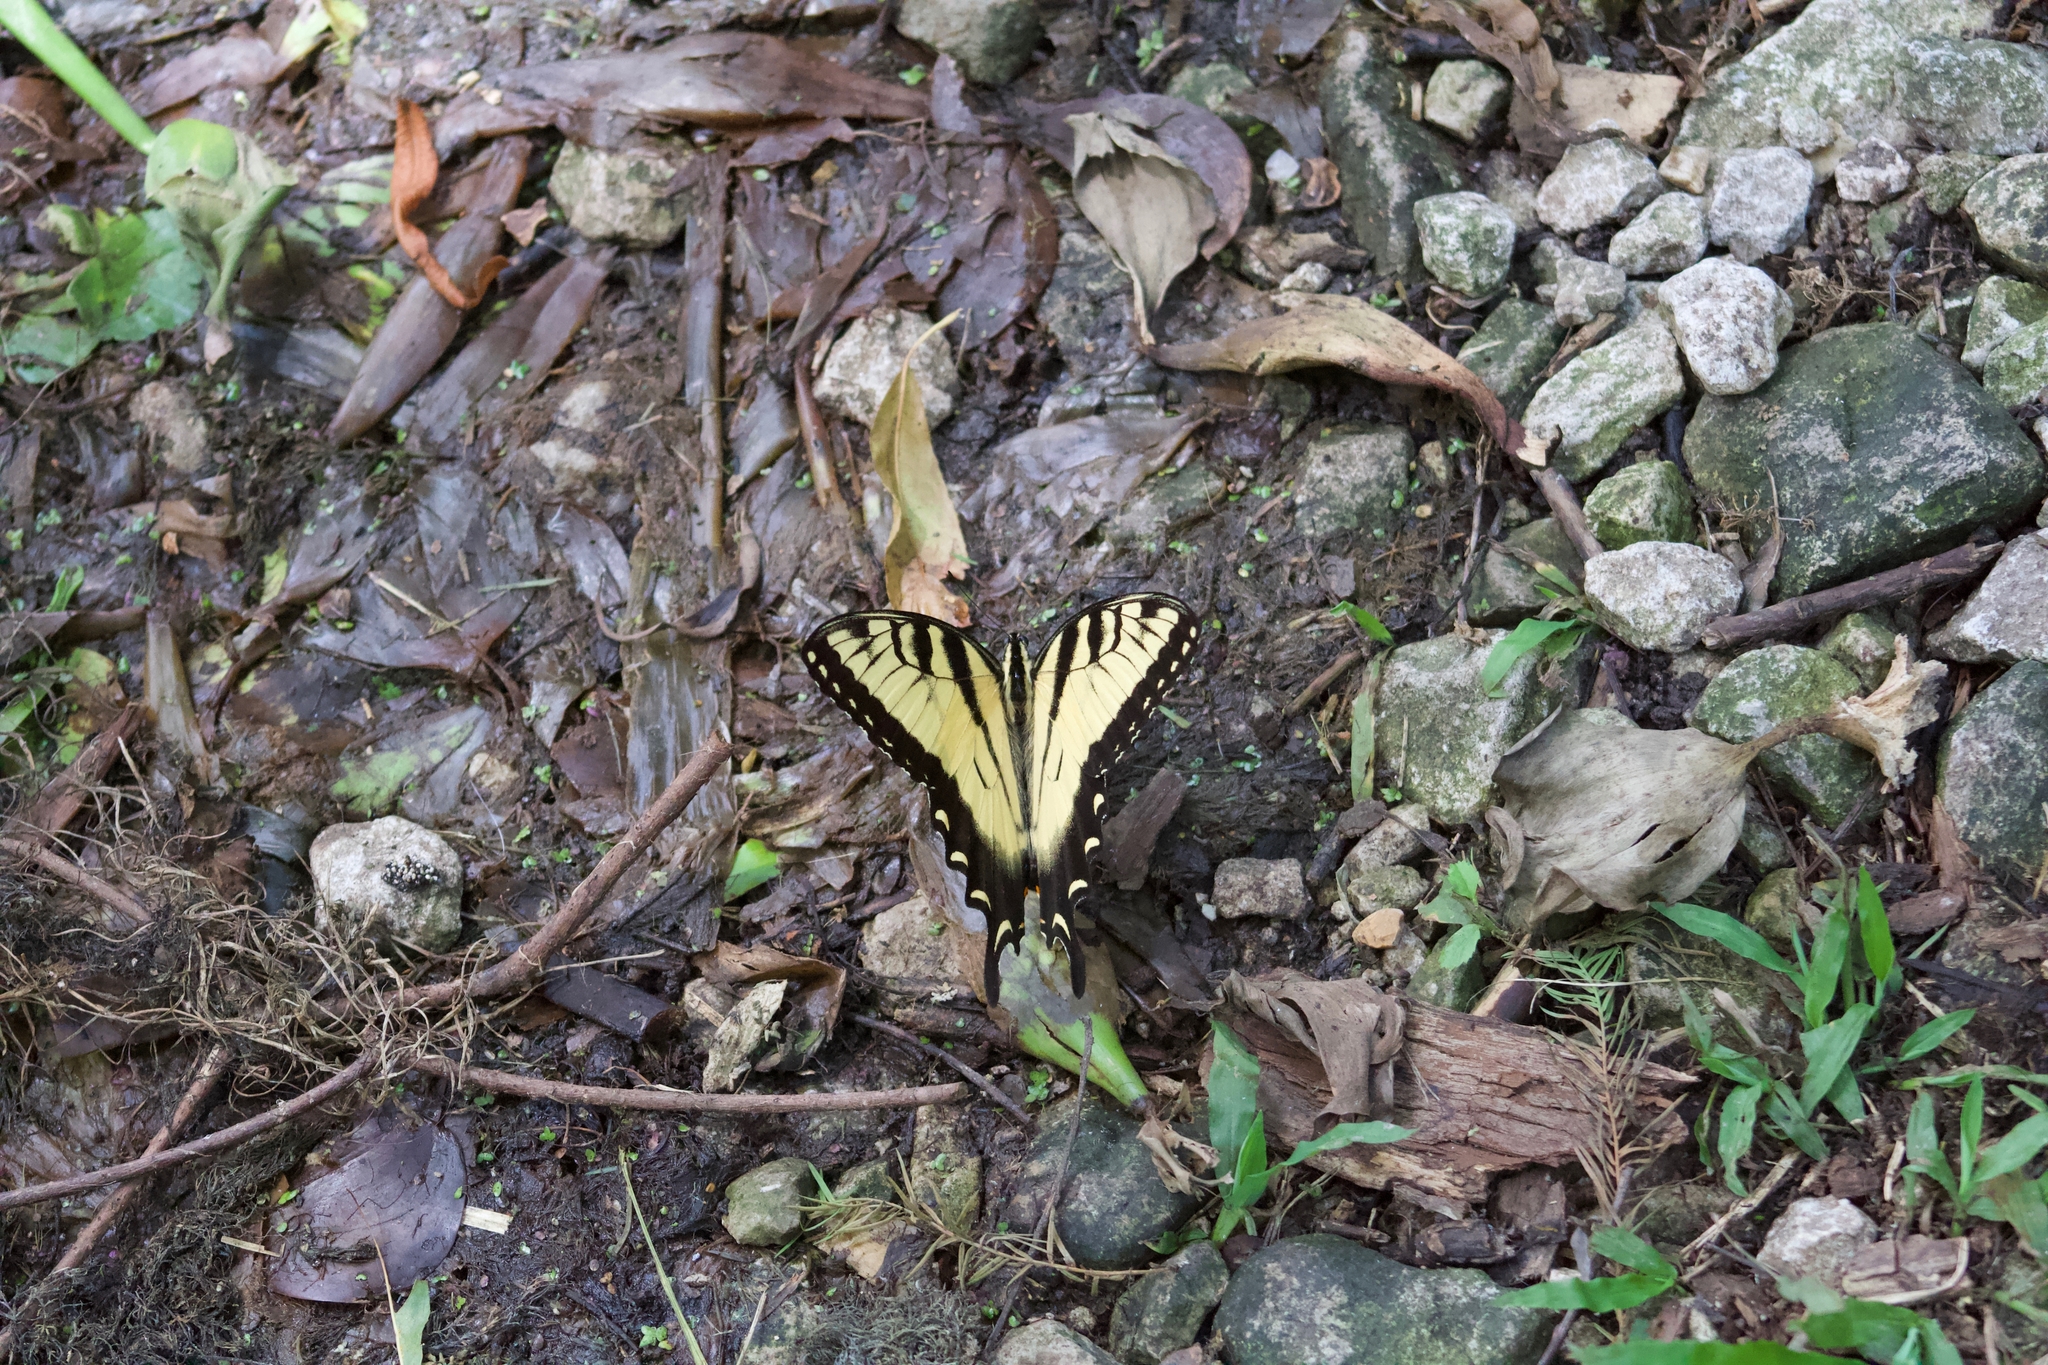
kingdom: Animalia
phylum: Arthropoda
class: Insecta
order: Lepidoptera
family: Papilionidae
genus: Papilio
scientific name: Papilio glaucus
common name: Tiger swallowtail
